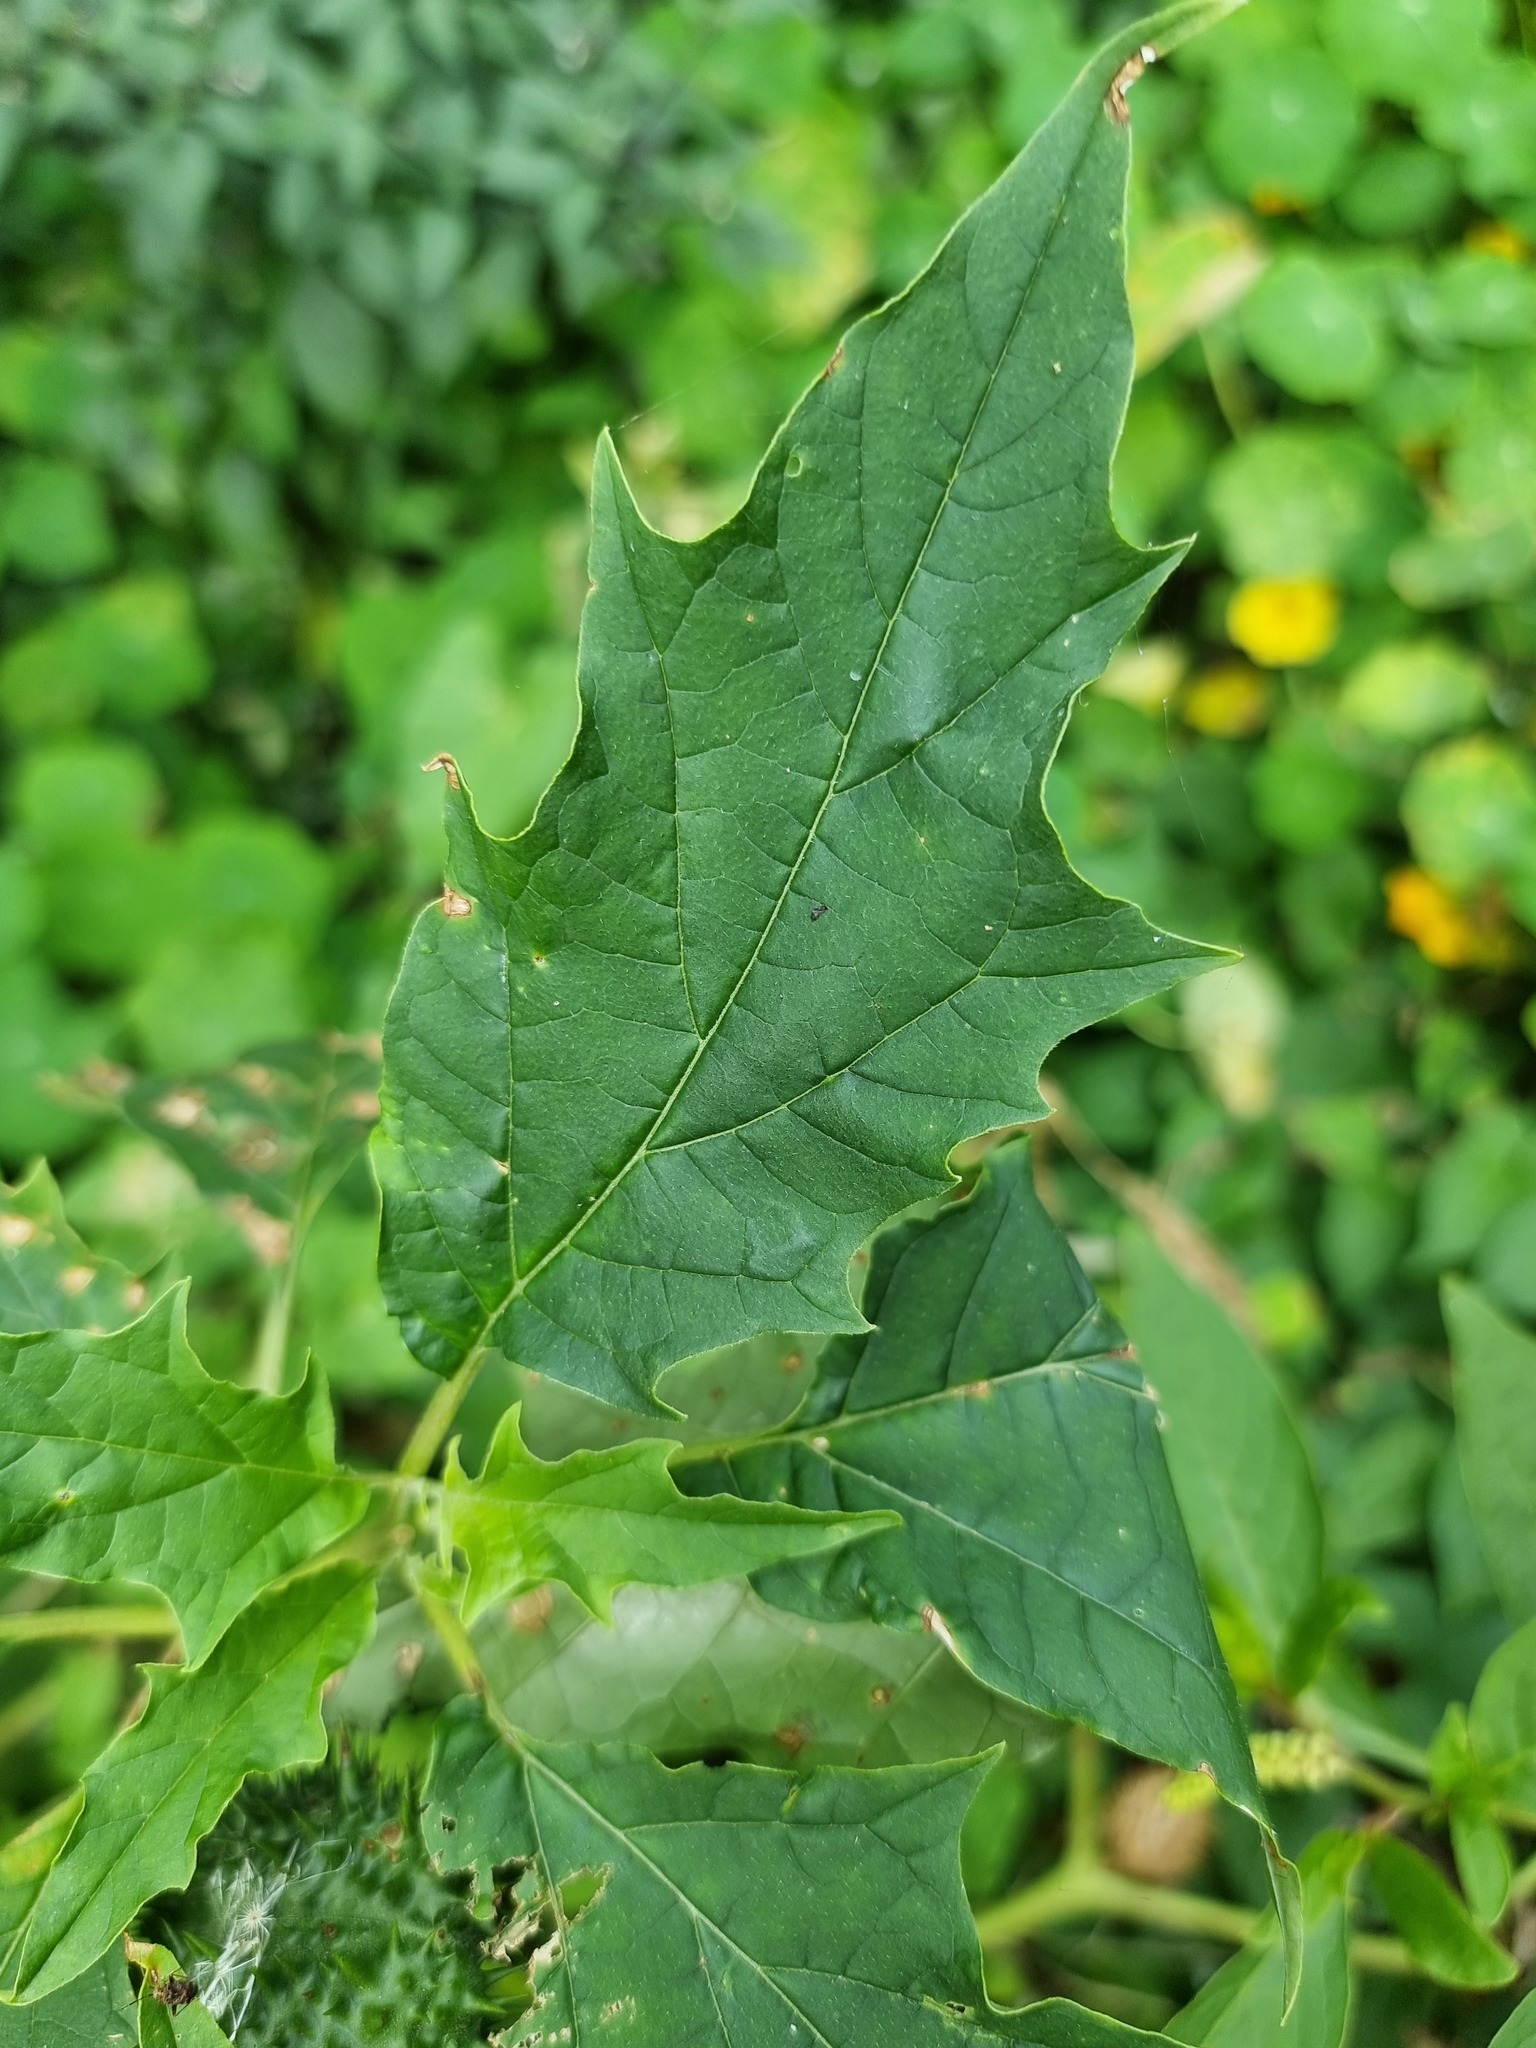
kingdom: Plantae
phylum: Tracheophyta
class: Magnoliopsida
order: Solanales
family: Solanaceae
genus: Datura
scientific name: Datura stramonium
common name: Thorn-apple
